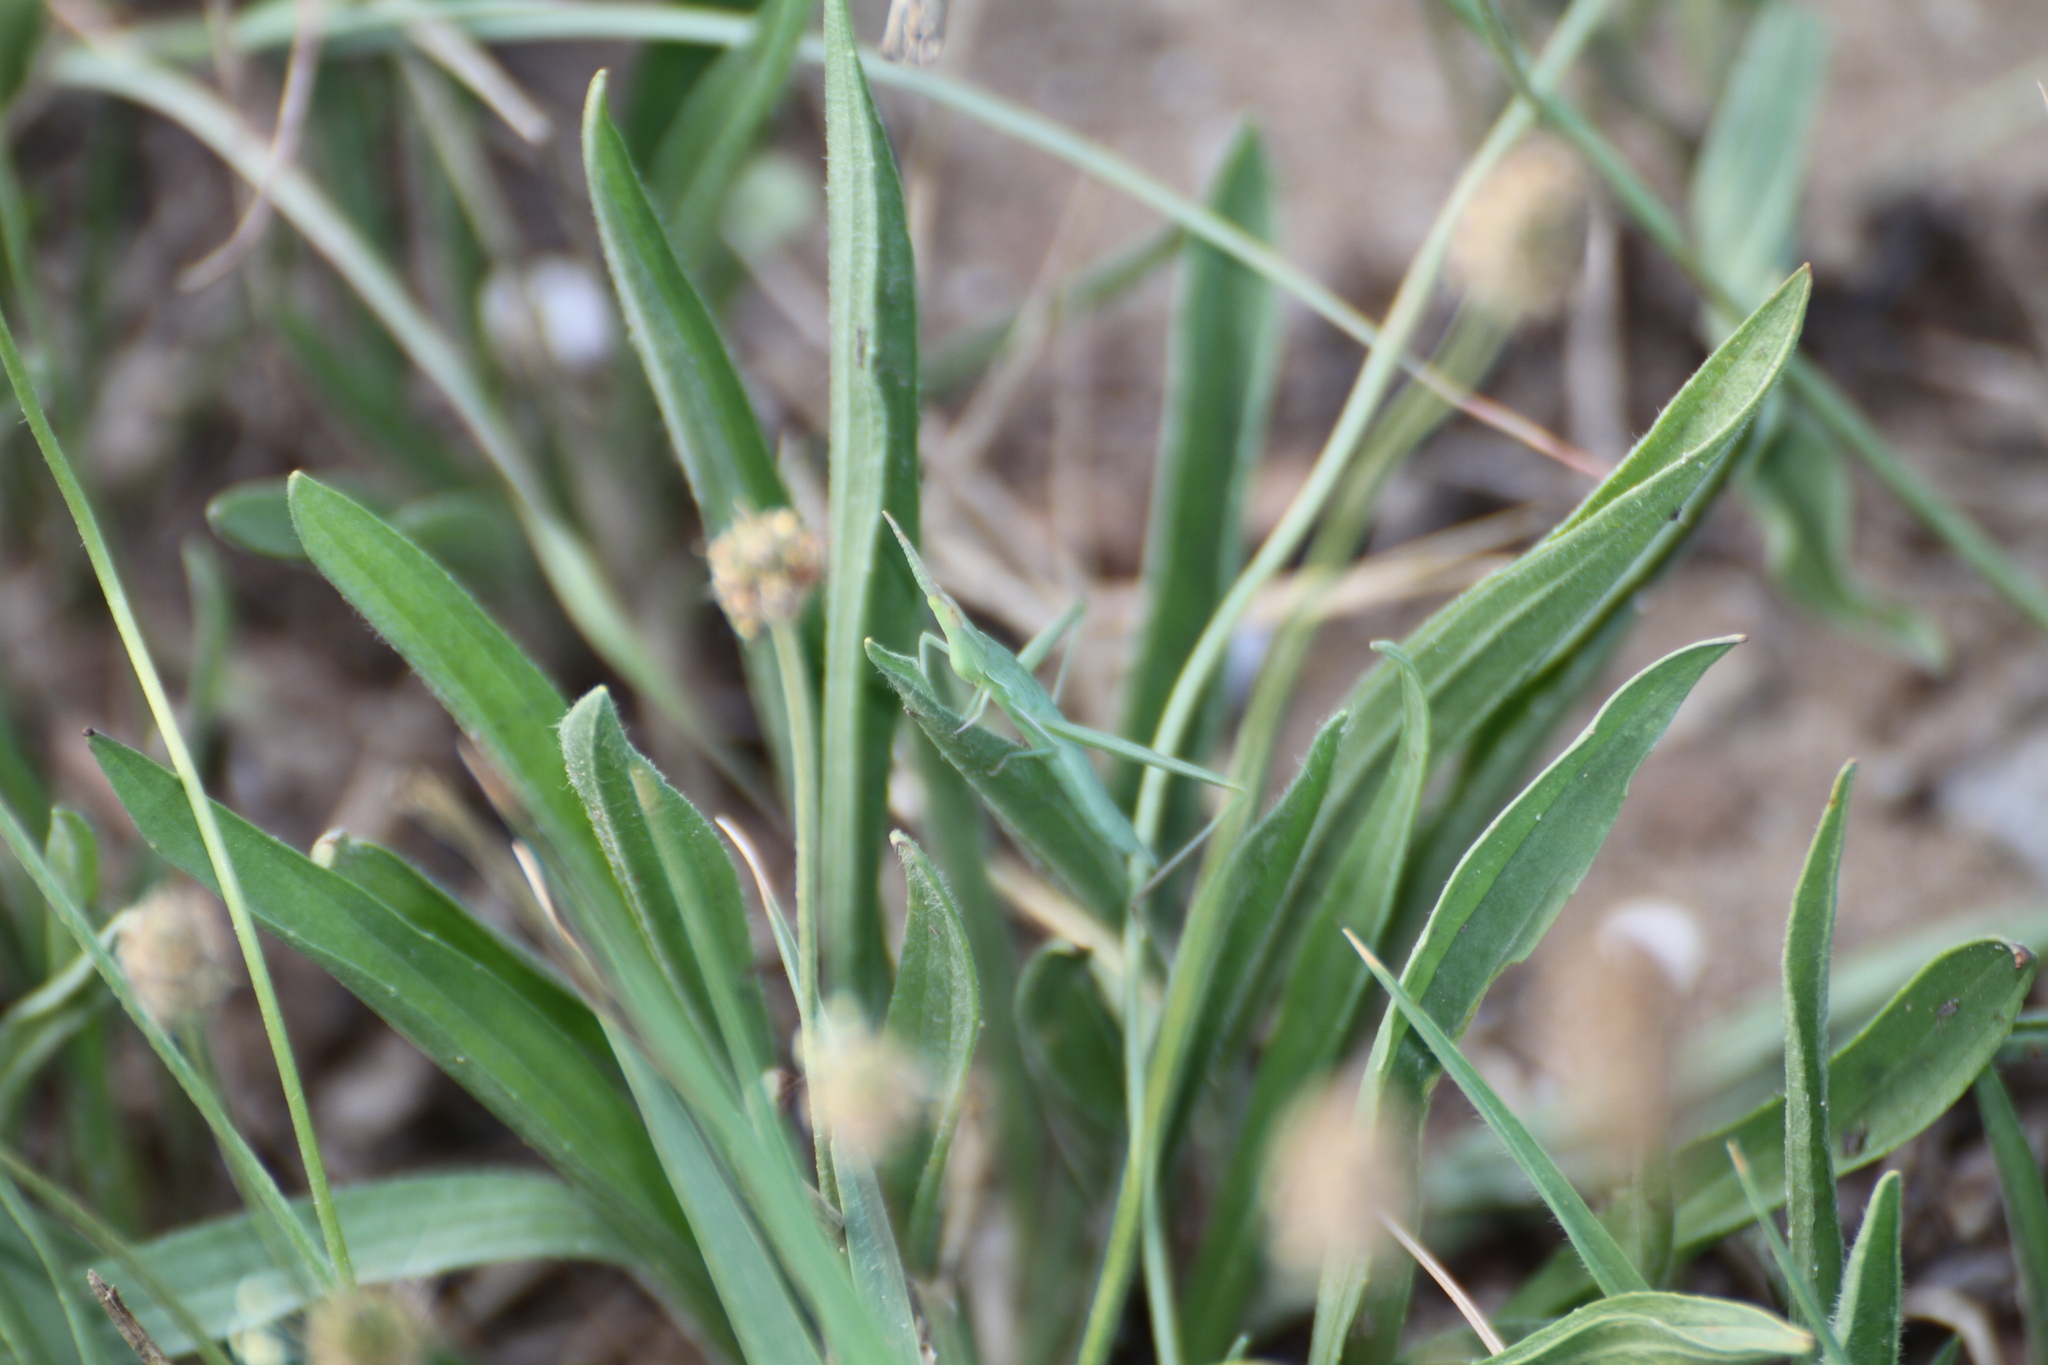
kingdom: Animalia
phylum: Arthropoda
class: Insecta
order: Orthoptera
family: Acrididae
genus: Acrida
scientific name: Acrida ungarica
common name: Common cone-headed grasshopper
